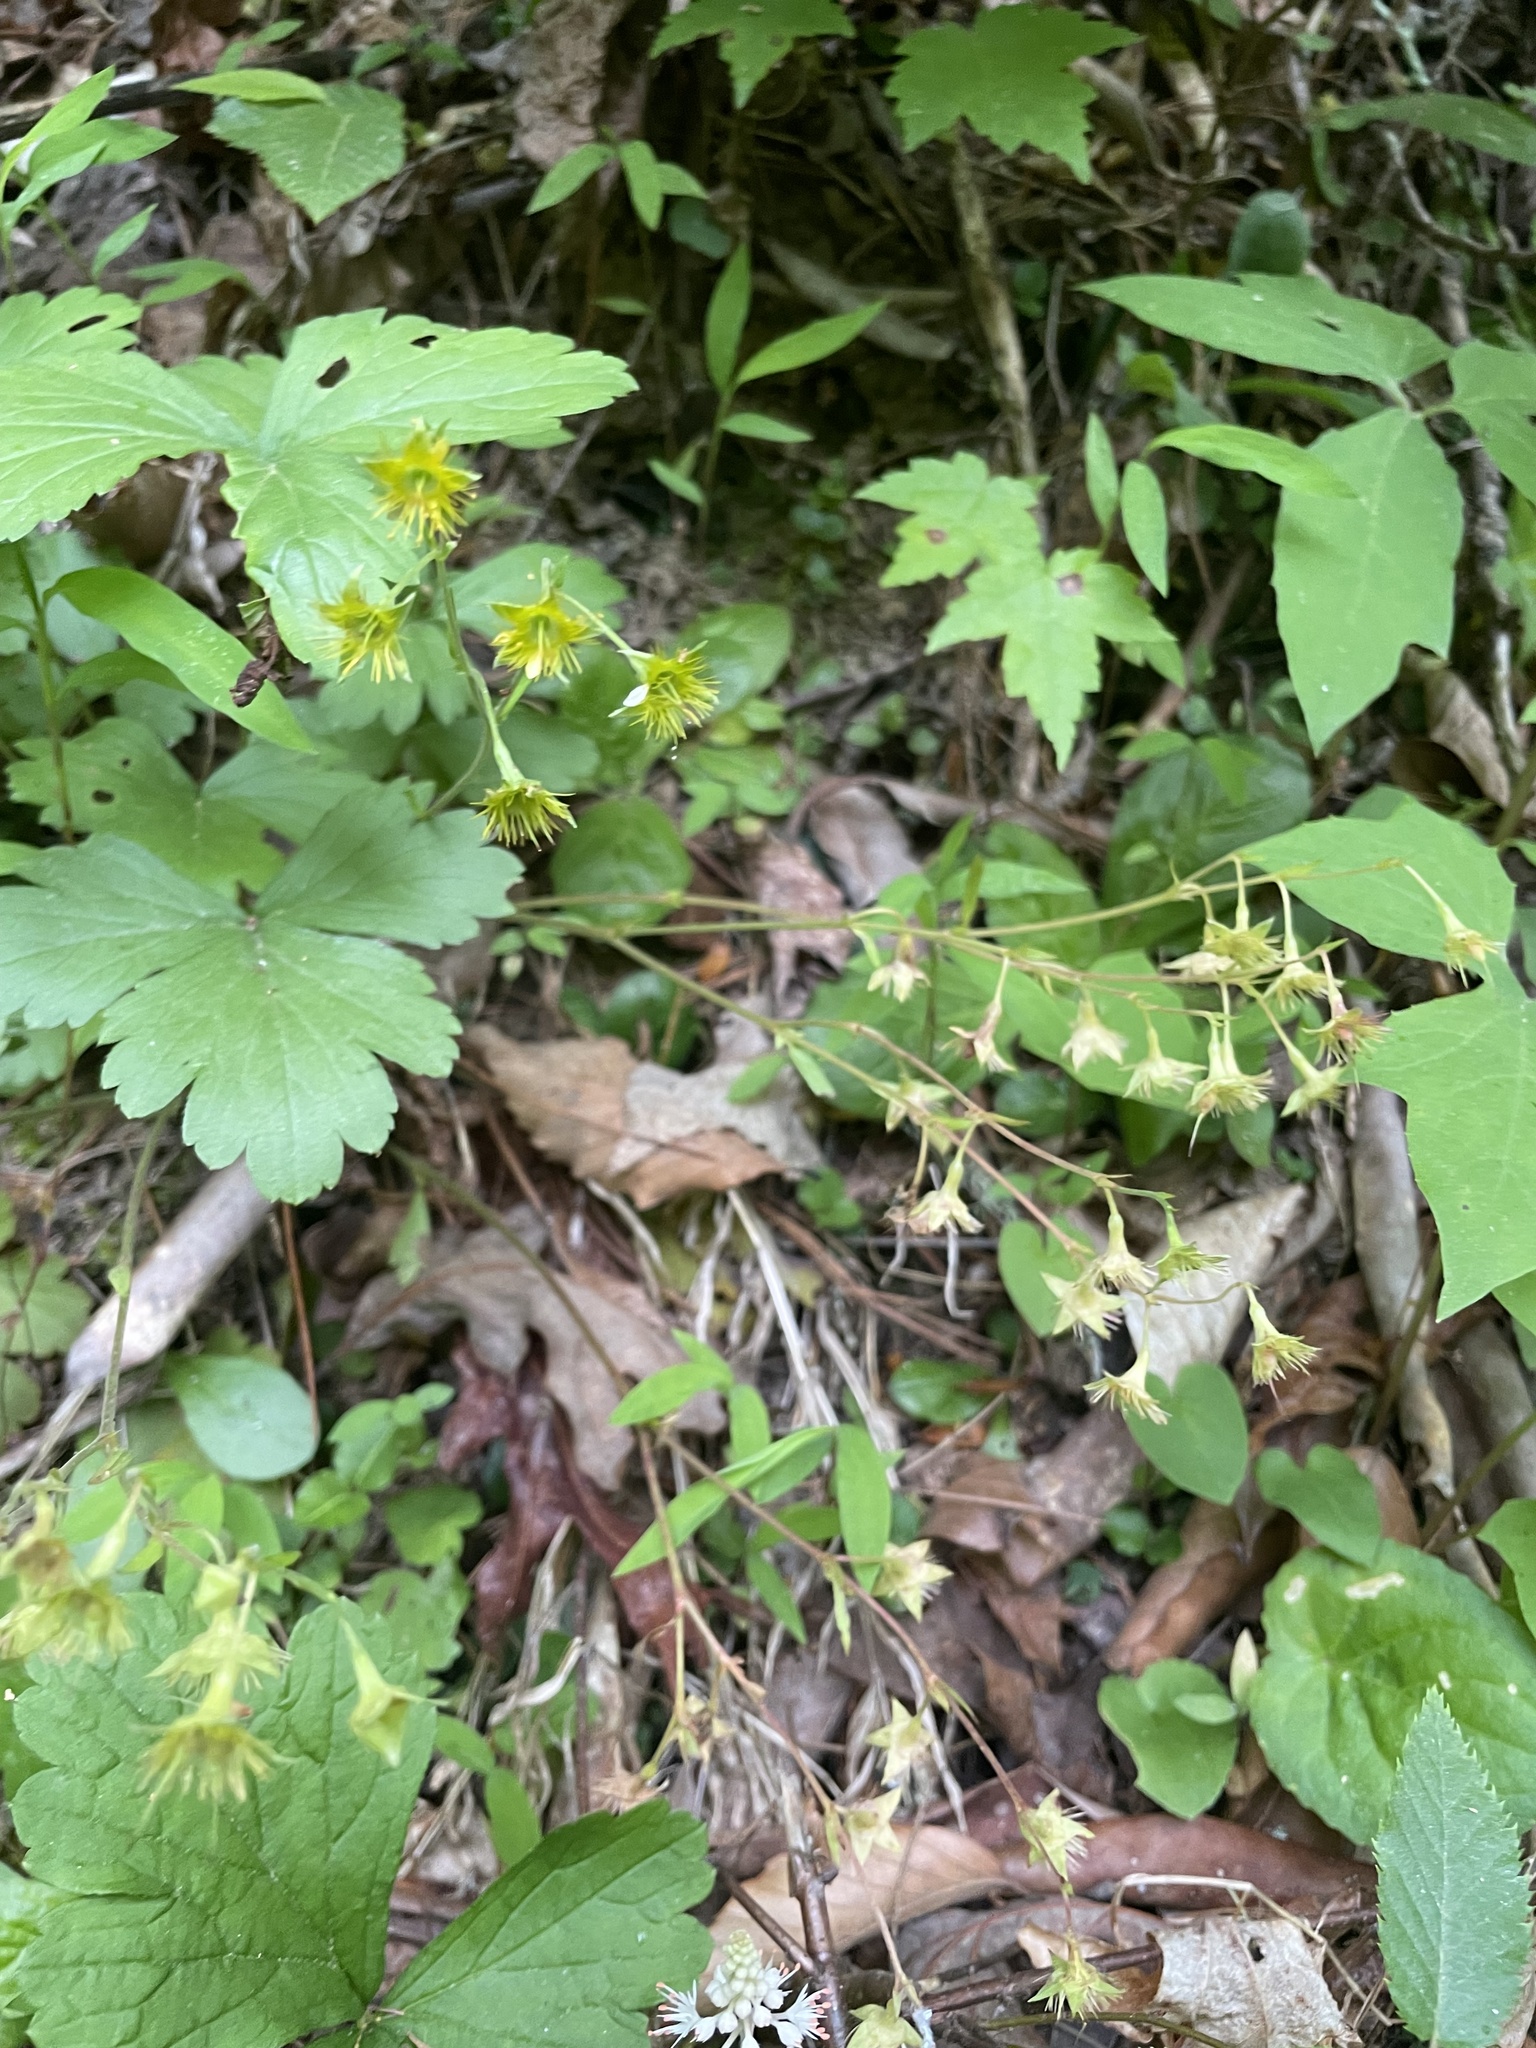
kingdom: Plantae
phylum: Tracheophyta
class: Magnoliopsida
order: Rosales
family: Rosaceae
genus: Geum
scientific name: Geum fragarioides
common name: Appalachian barren strawberry
